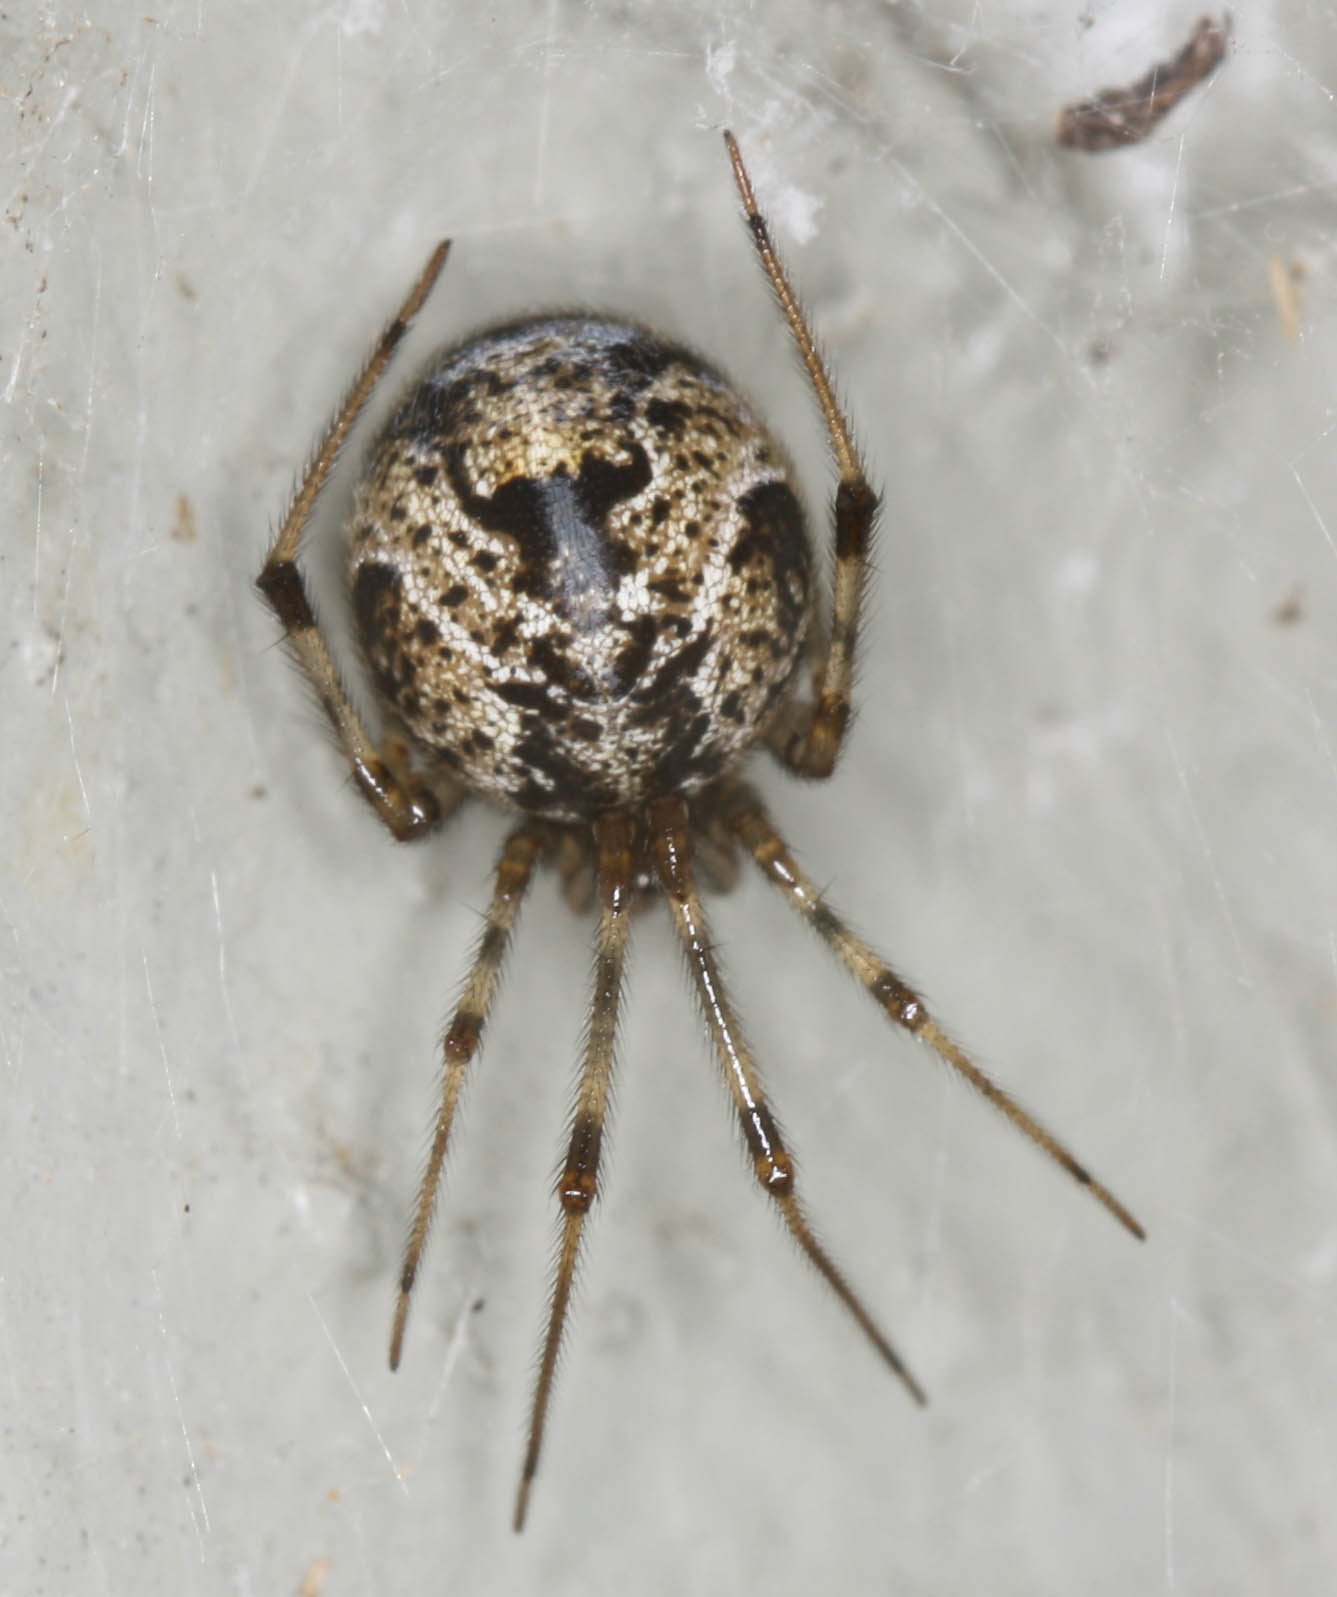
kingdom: Animalia
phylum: Arthropoda
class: Arachnida
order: Araneae
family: Theridiidae
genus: Parasteatoda
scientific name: Parasteatoda tepidariorum
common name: Common house spider
